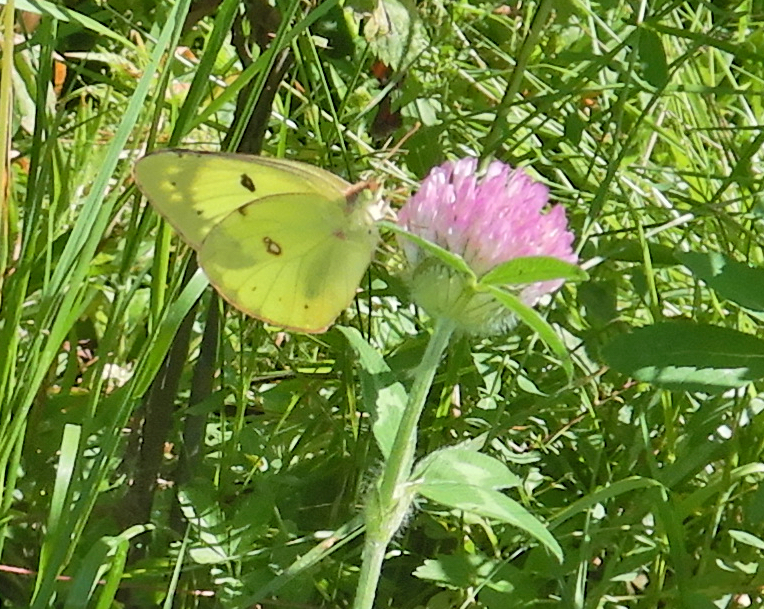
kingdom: Animalia
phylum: Arthropoda
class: Insecta
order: Lepidoptera
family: Pieridae
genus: Colias
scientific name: Colias philodice
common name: Clouded sulphur
